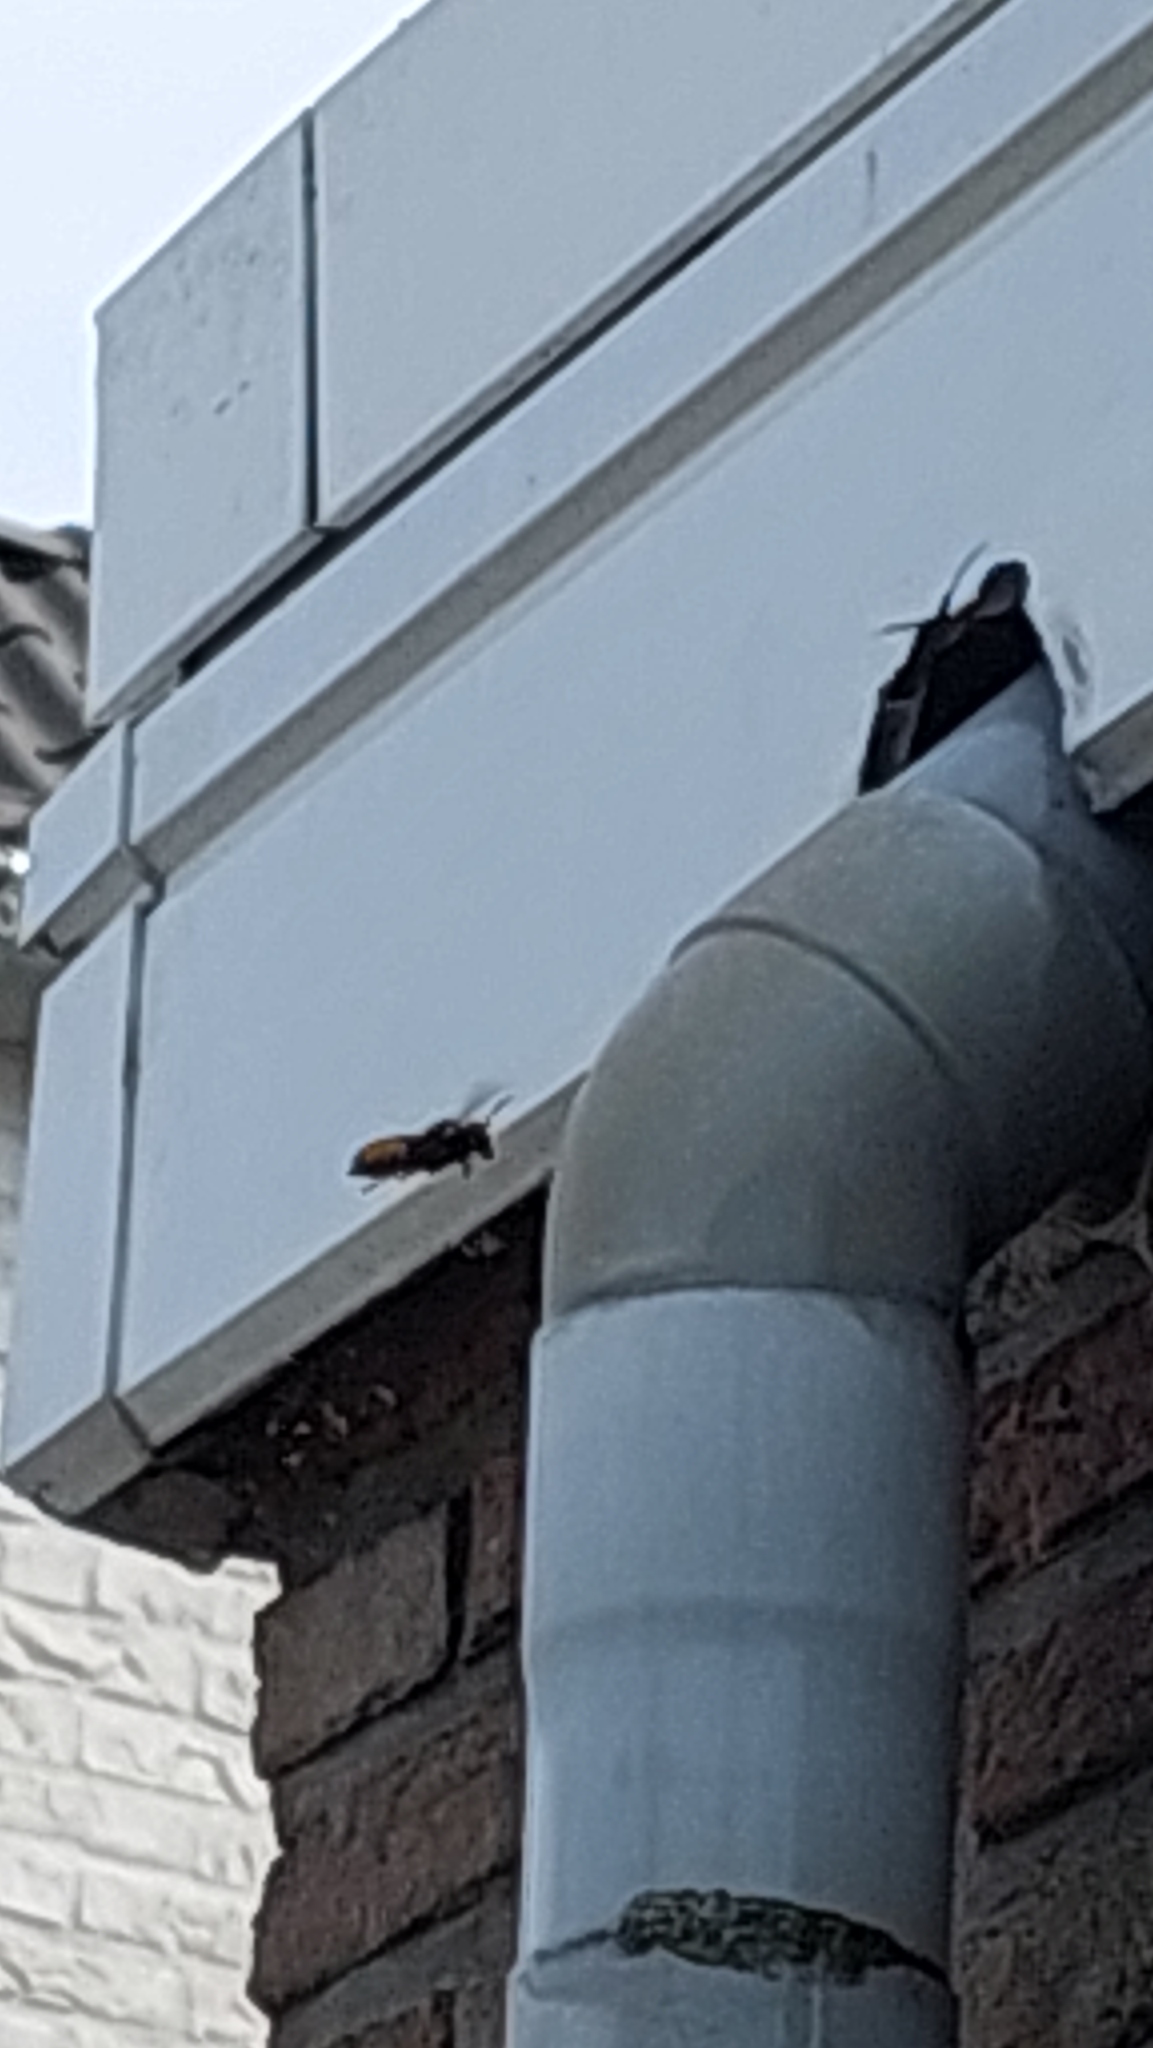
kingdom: Animalia
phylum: Arthropoda
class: Insecta
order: Hymenoptera
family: Vespidae
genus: Vespa
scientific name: Vespa crabro
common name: Hornet
